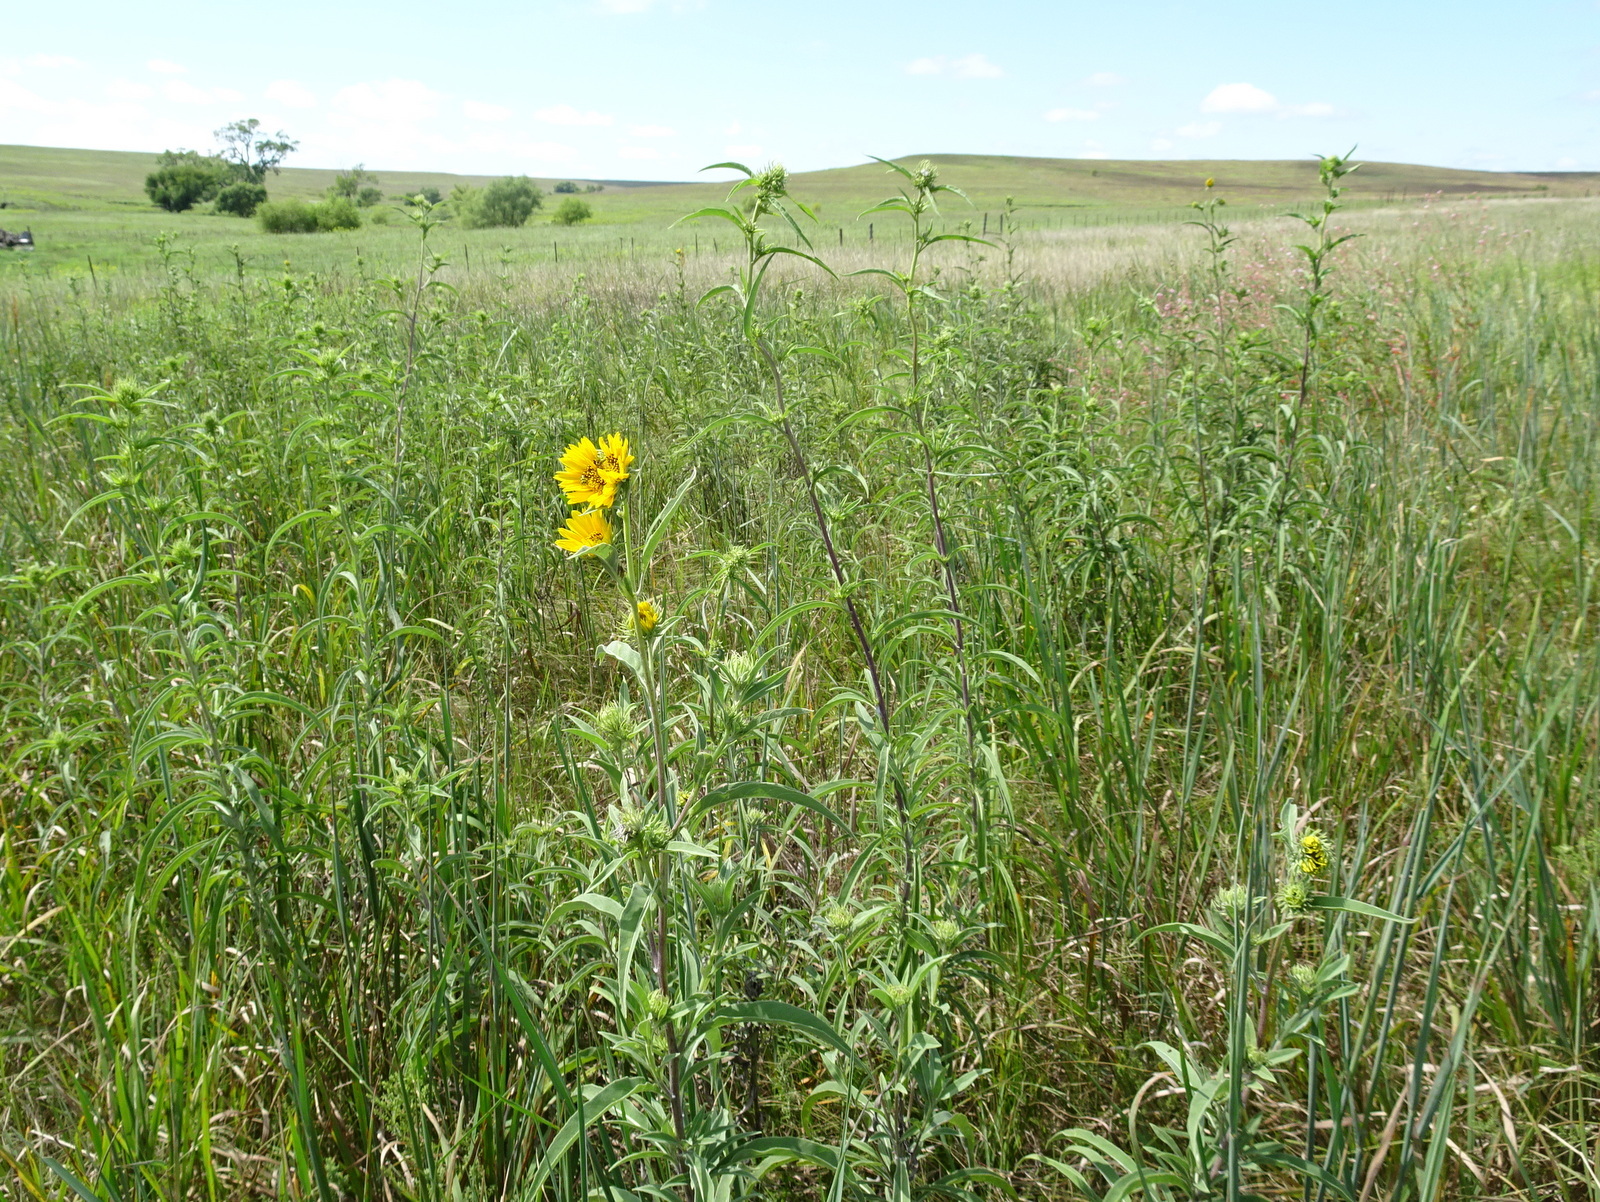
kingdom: Plantae
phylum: Tracheophyta
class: Magnoliopsida
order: Asterales
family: Asteraceae
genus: Helianthus
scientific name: Helianthus maximiliani
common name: Maximilian's sunflower
